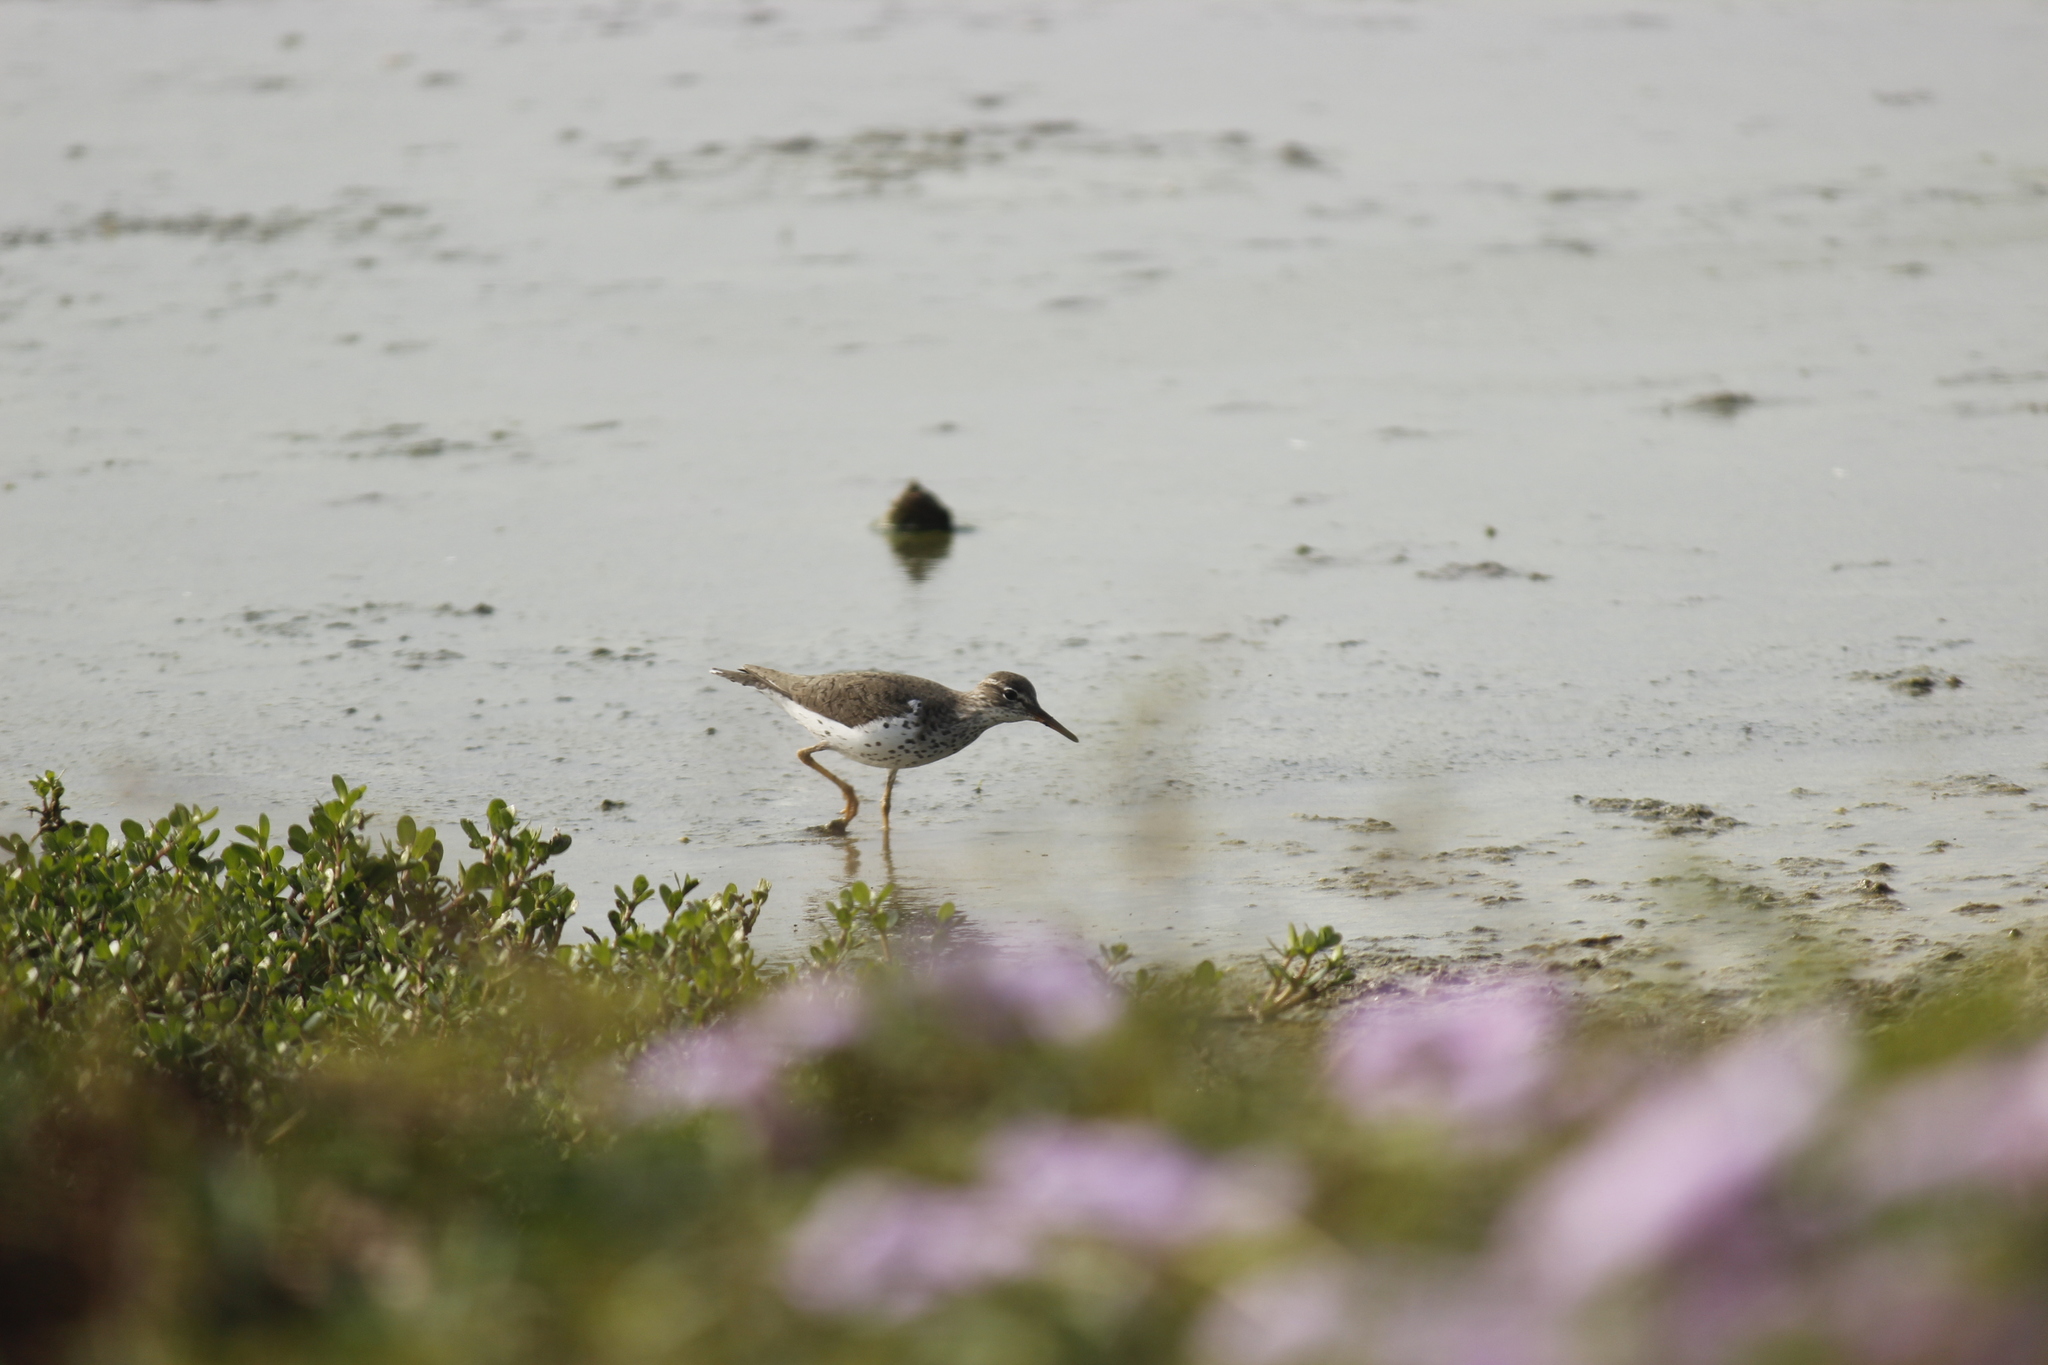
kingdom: Animalia
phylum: Chordata
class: Aves
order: Charadriiformes
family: Scolopacidae
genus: Actitis
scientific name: Actitis macularius
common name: Spotted sandpiper
